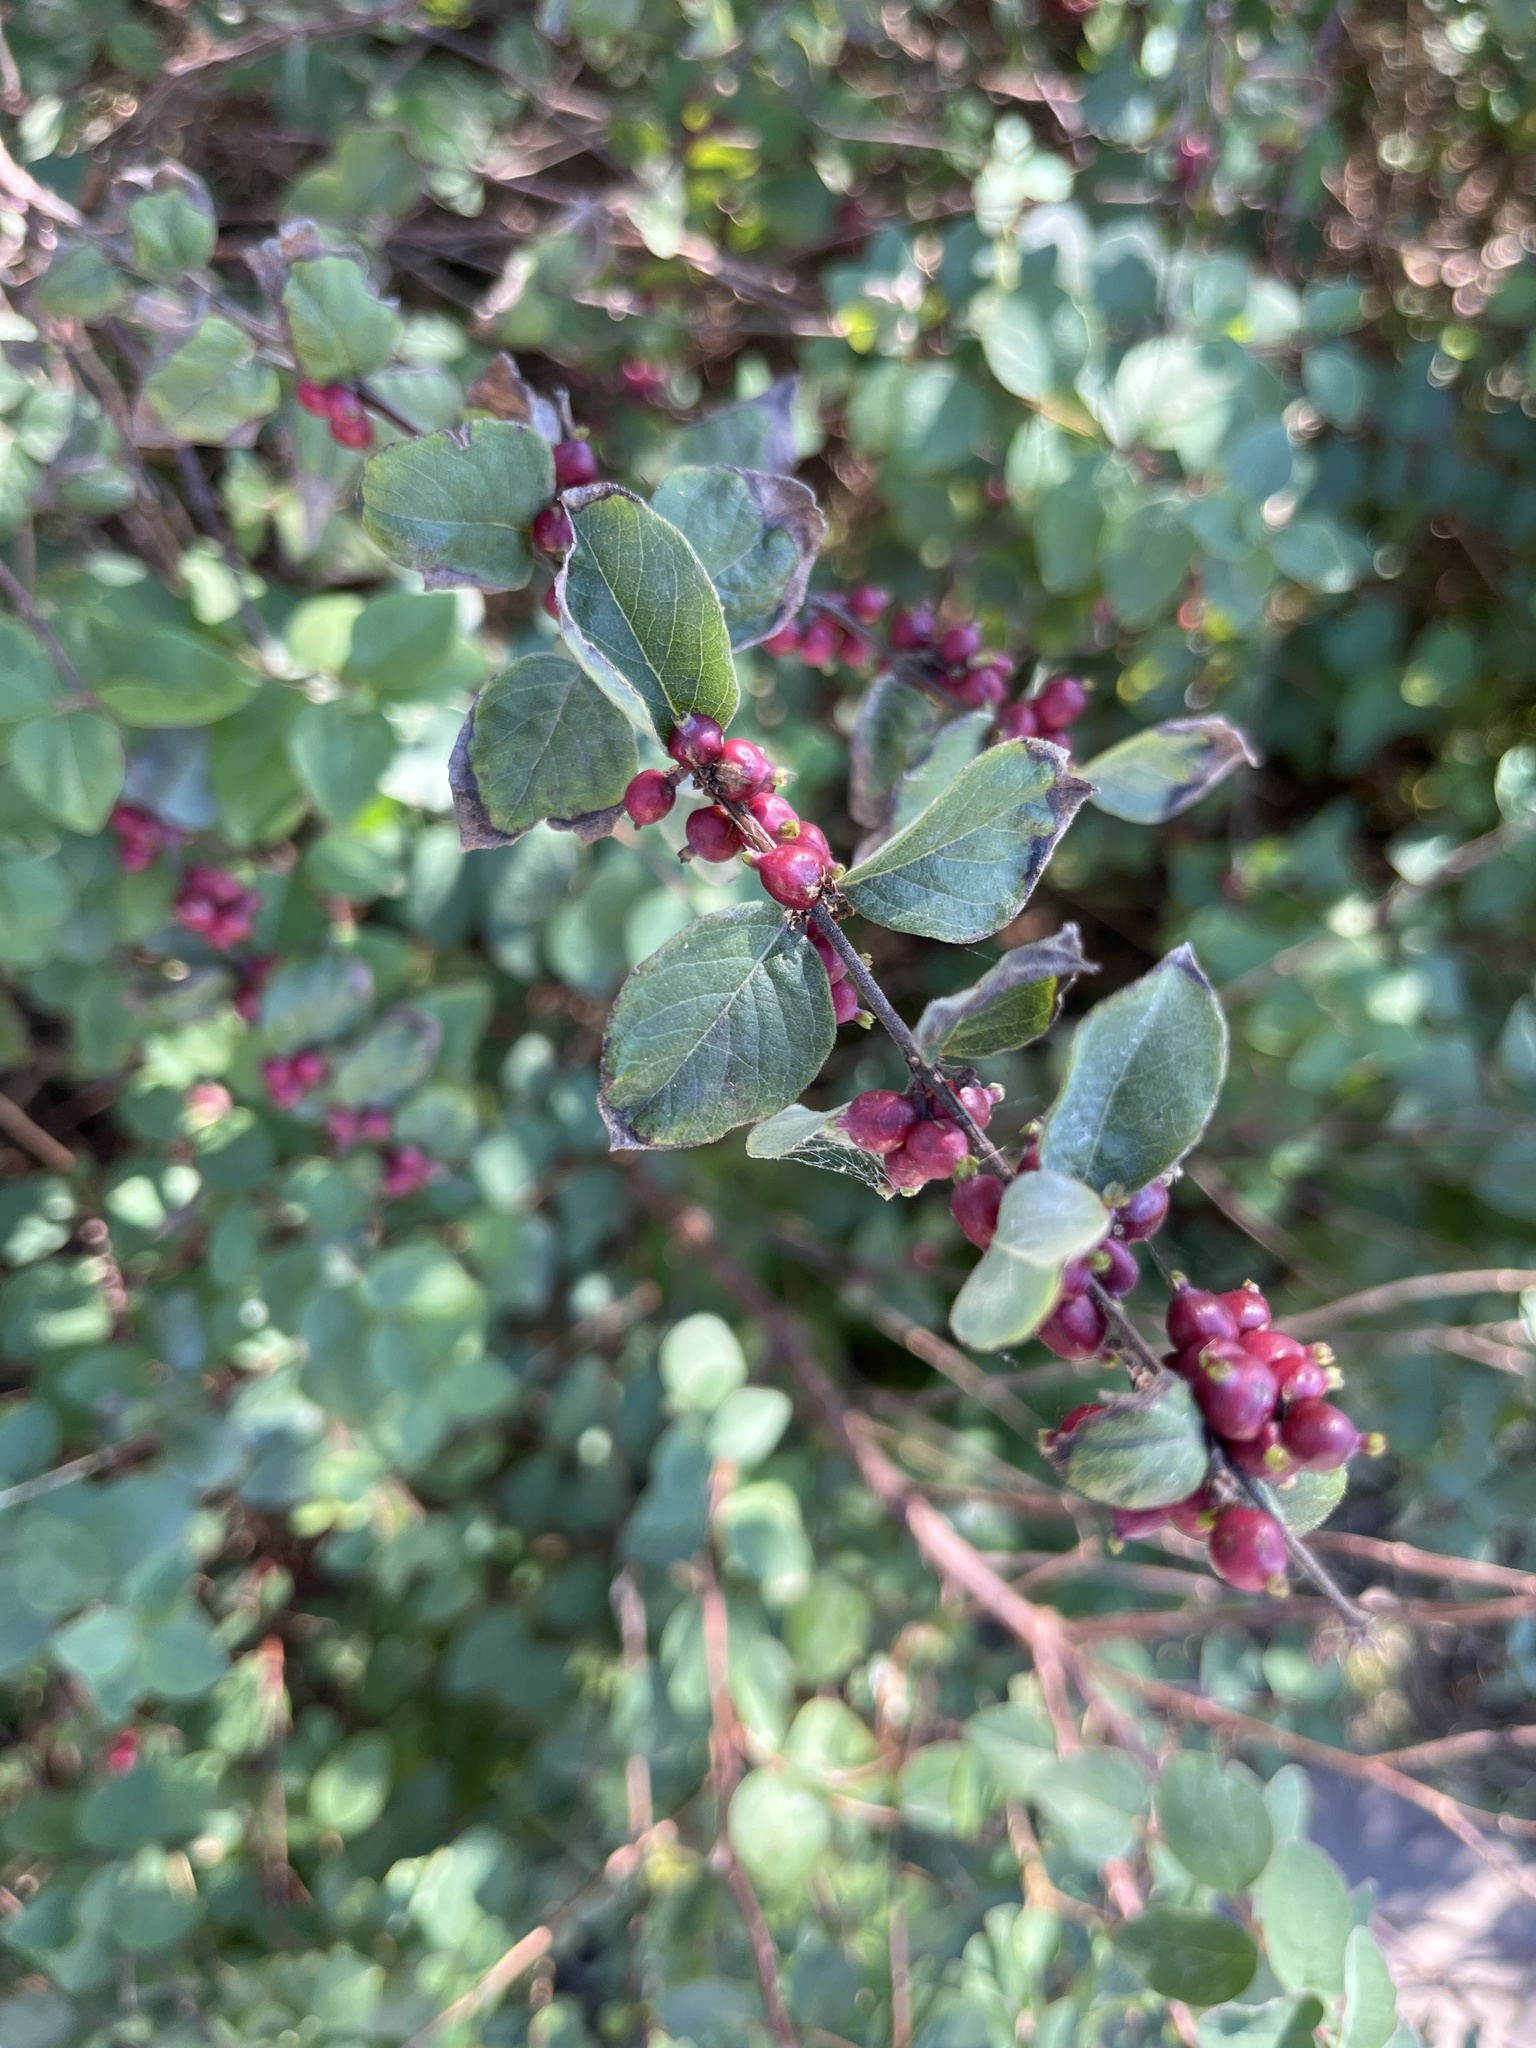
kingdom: Plantae
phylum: Tracheophyta
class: Magnoliopsida
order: Dipsacales
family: Caprifoliaceae
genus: Symphoricarpos
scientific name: Symphoricarpos orbiculatus
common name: Coralberry
